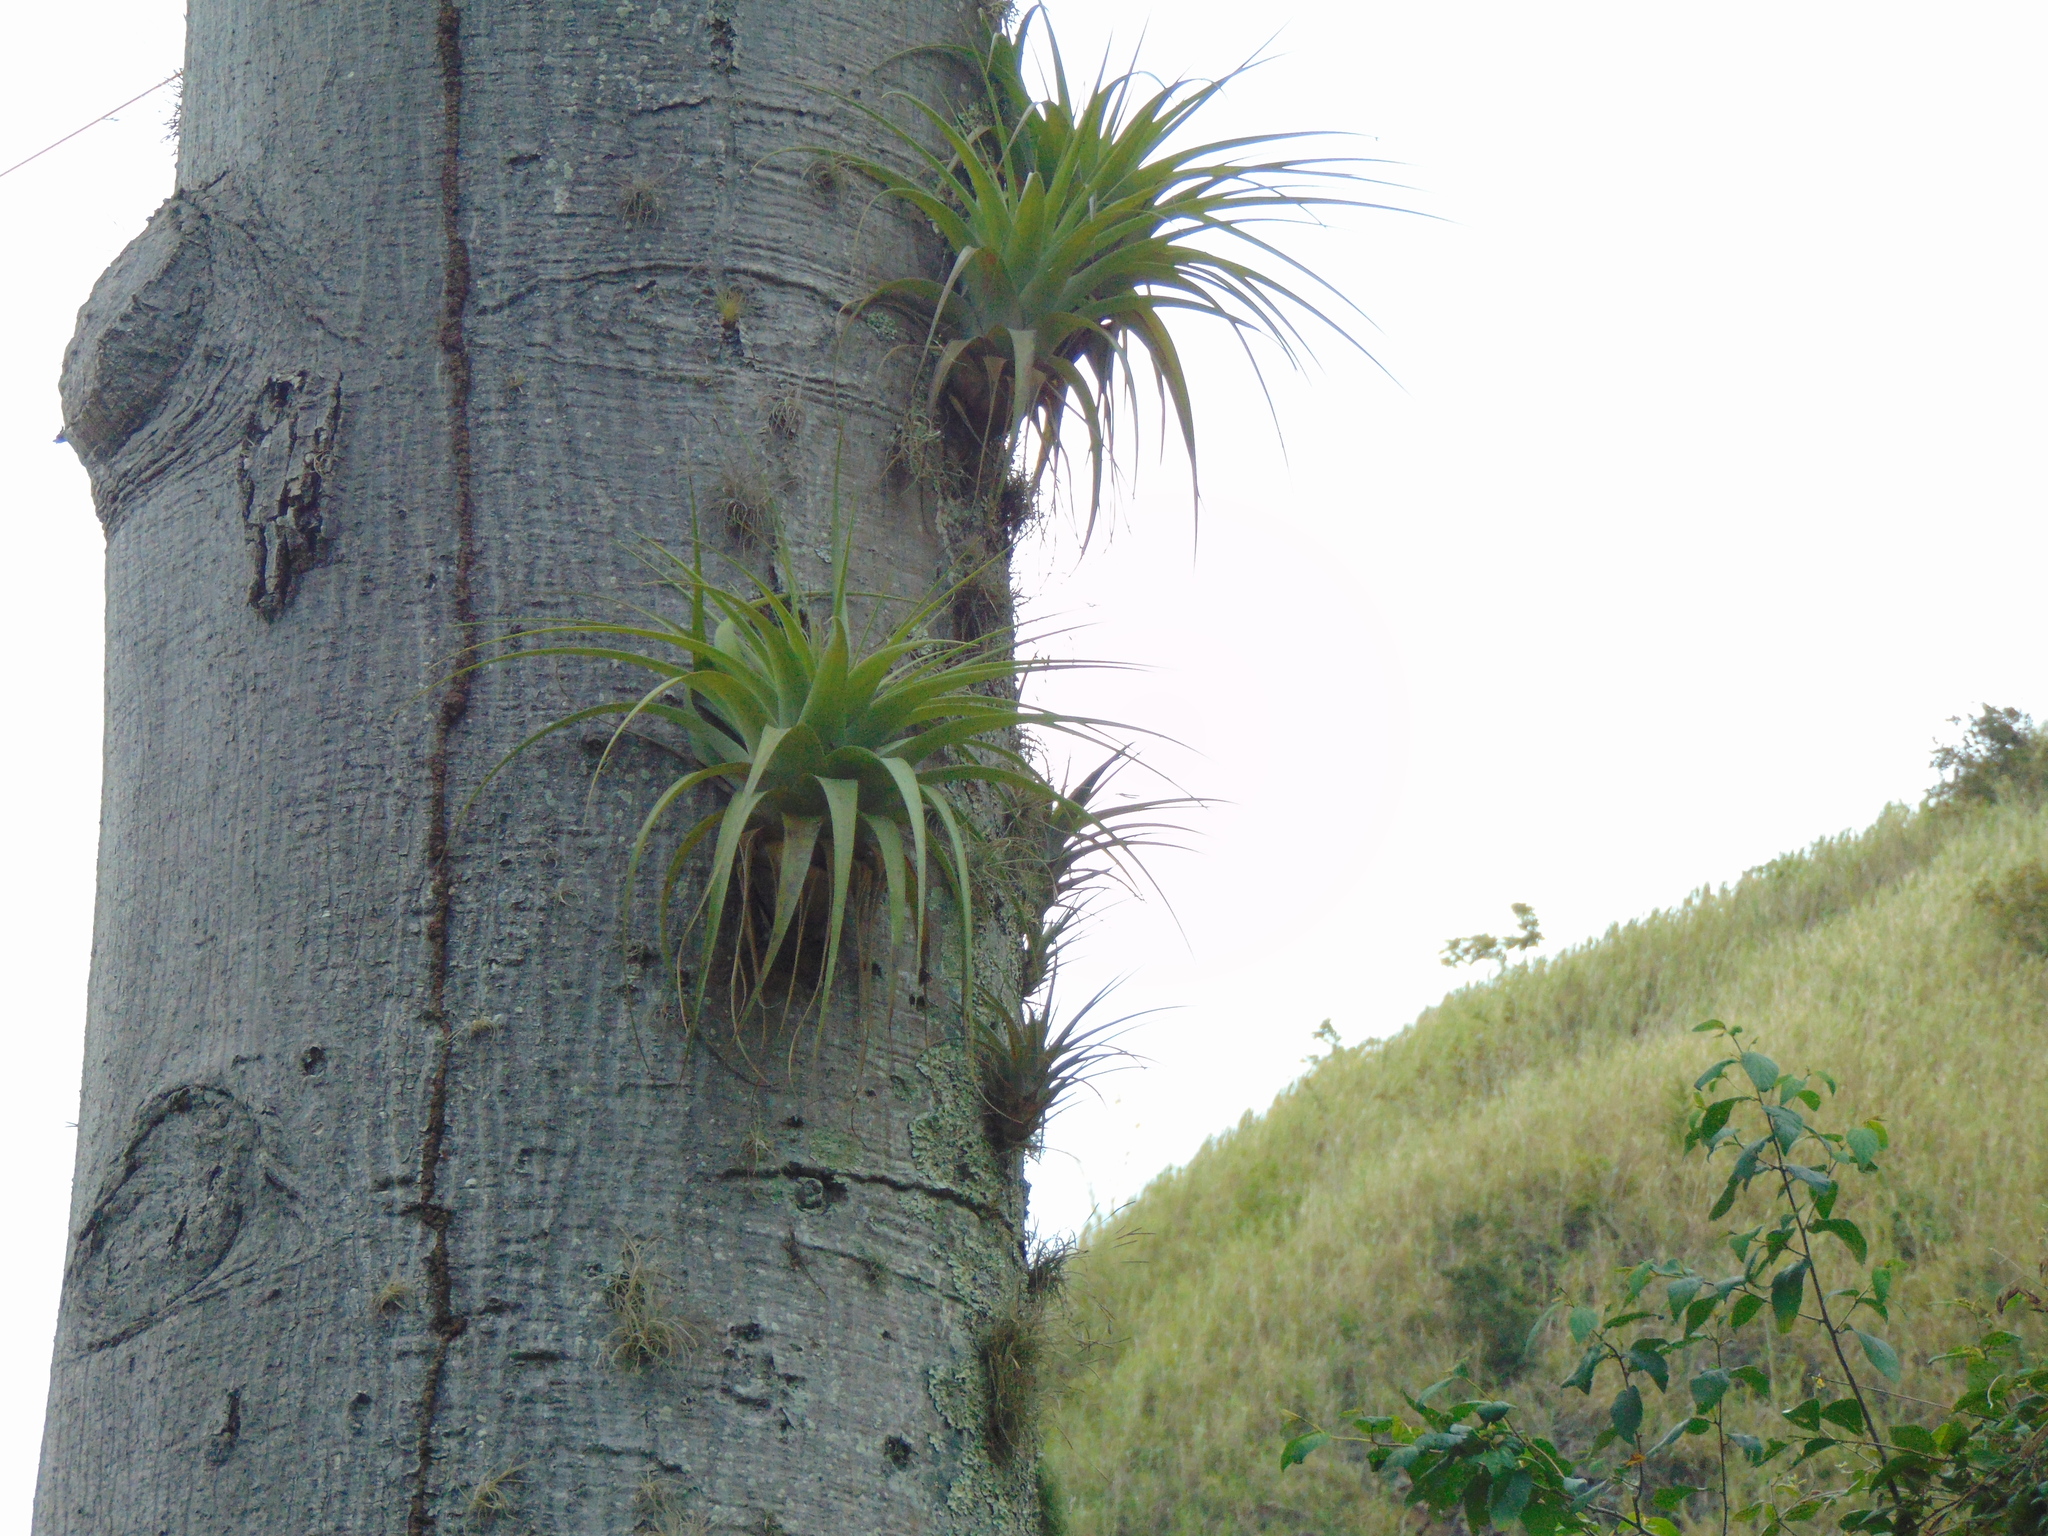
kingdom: Plantae
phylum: Tracheophyta
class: Liliopsida
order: Poales
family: Bromeliaceae
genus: Tillandsia
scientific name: Tillandsia utriculata
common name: Wild pine
